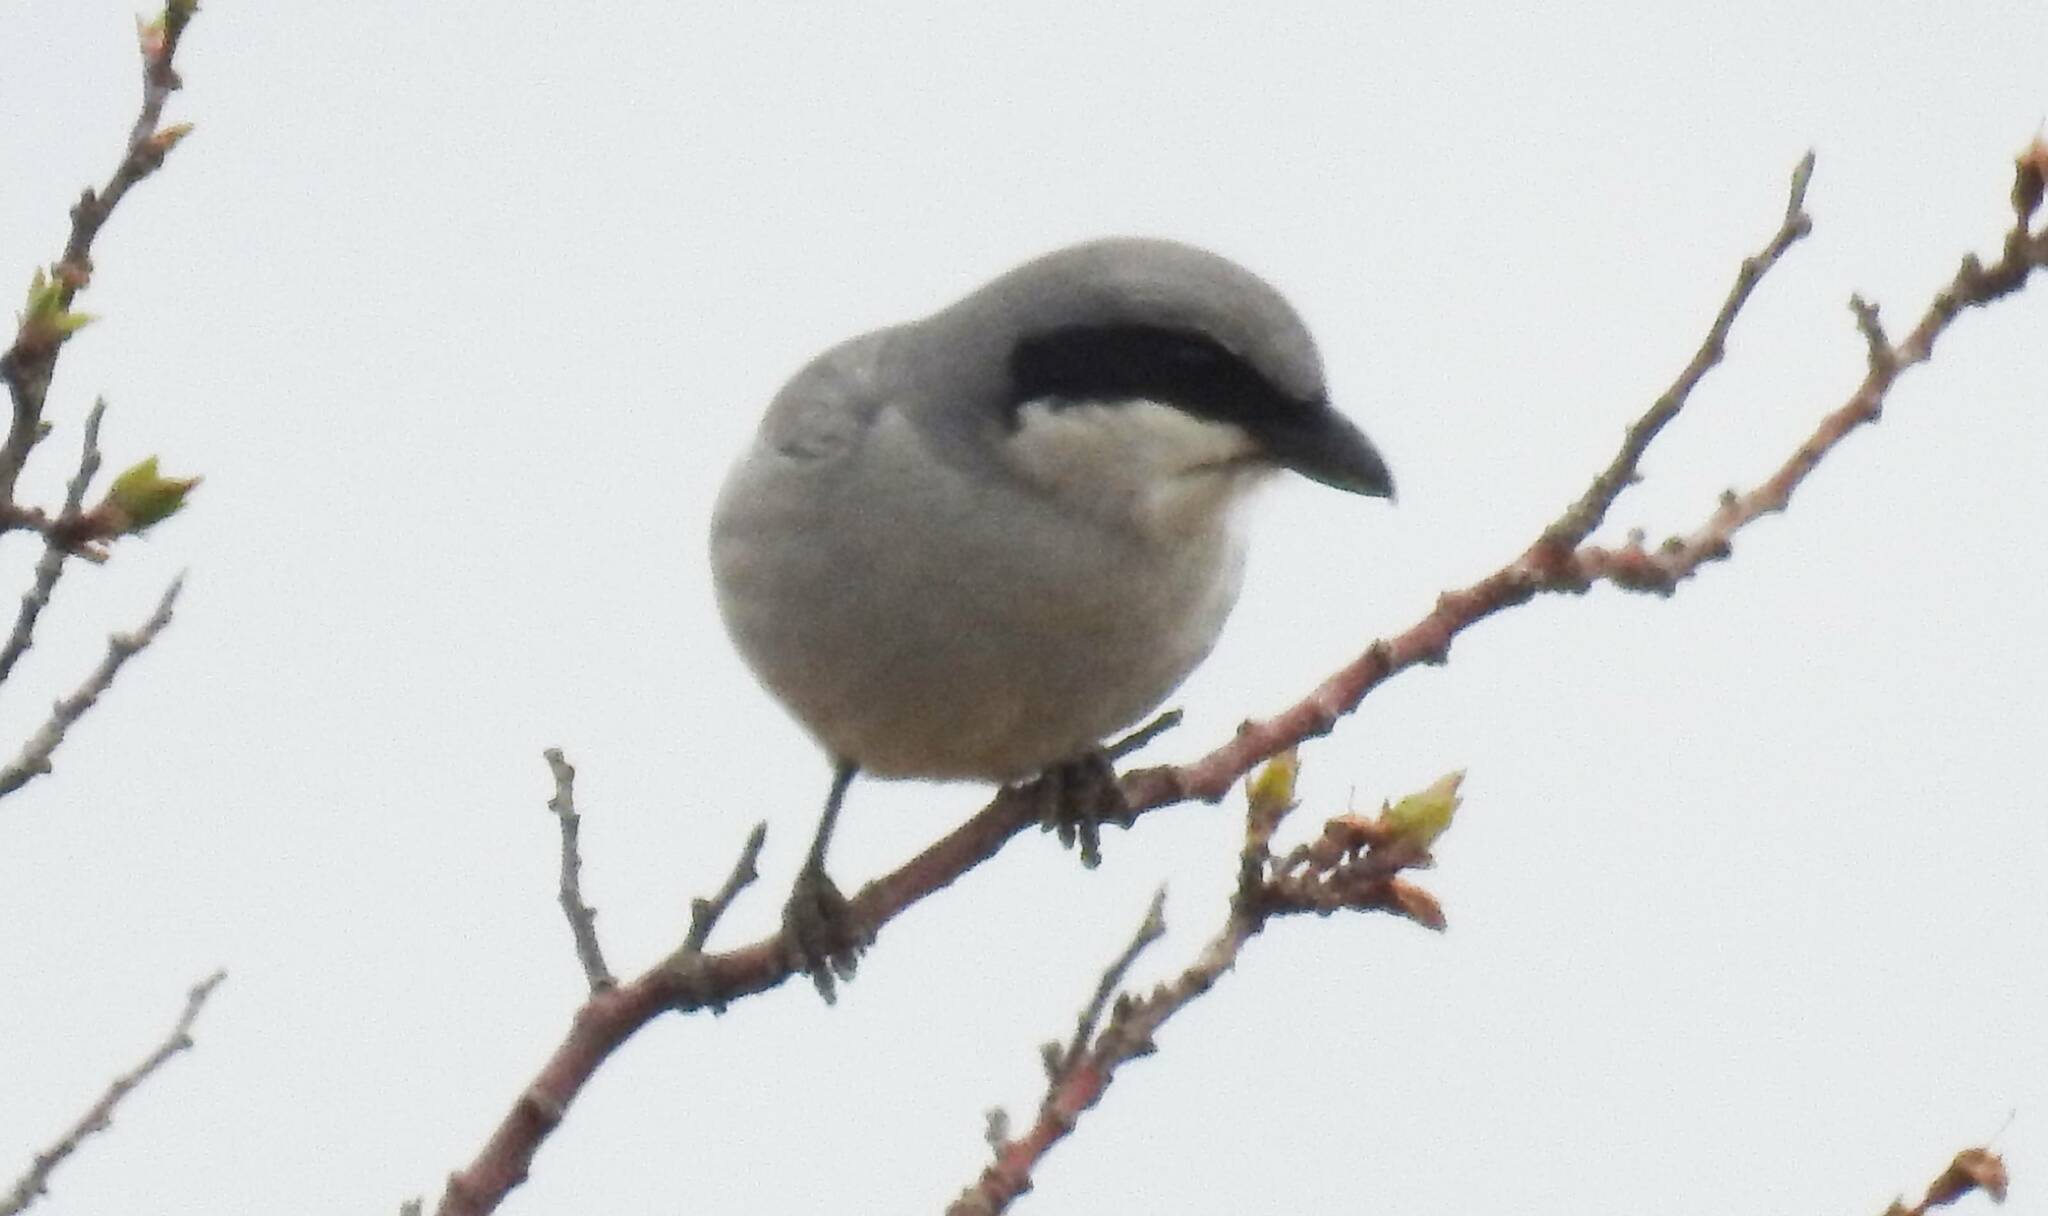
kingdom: Animalia
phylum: Chordata
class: Aves
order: Passeriformes
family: Laniidae
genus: Lanius
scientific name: Lanius excubitor
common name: Great grey shrike
